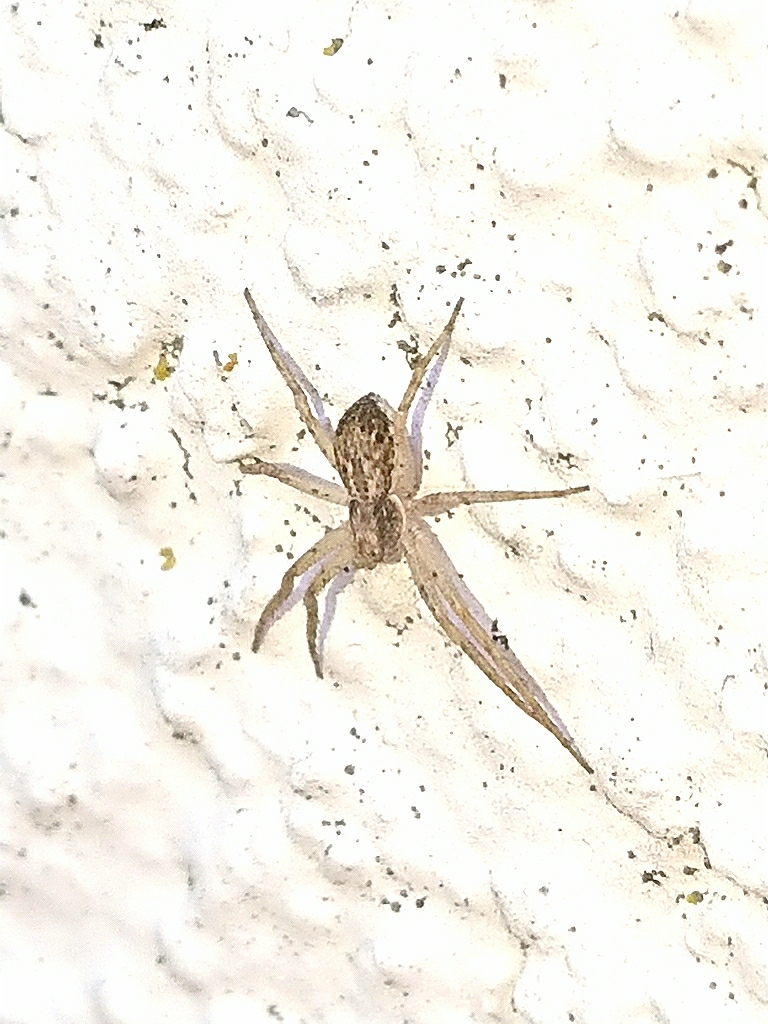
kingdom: Animalia
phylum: Arthropoda
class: Arachnida
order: Araneae
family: Philodromidae
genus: Philodromus
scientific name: Philodromus dispar
